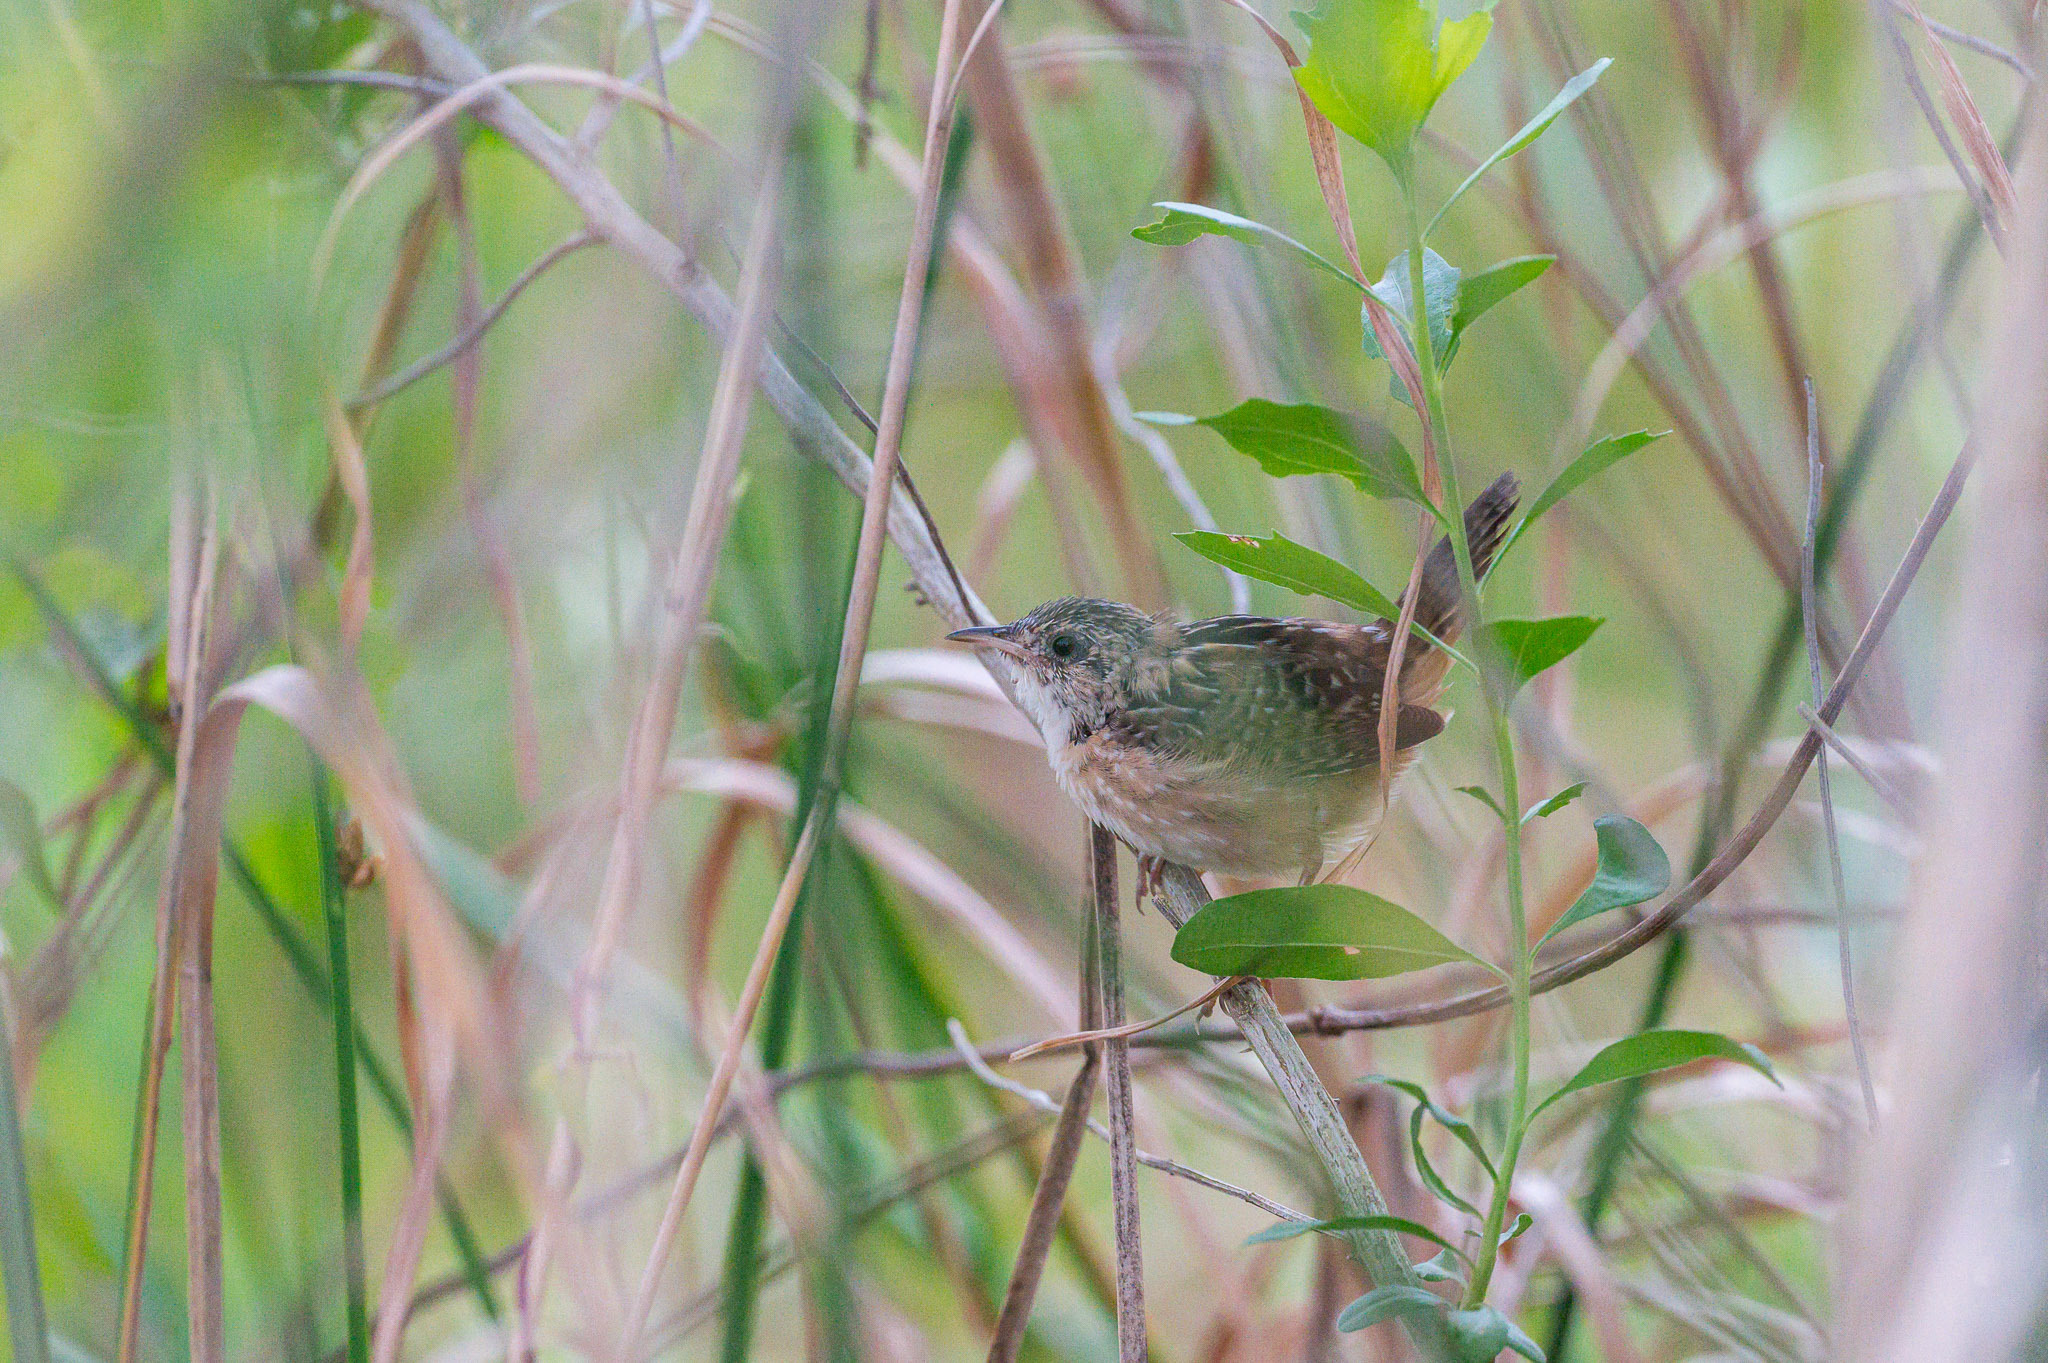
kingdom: Animalia
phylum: Chordata
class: Aves
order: Passeriformes
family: Troglodytidae
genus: Cistothorus
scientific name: Cistothorus platensis
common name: Sedge wren
